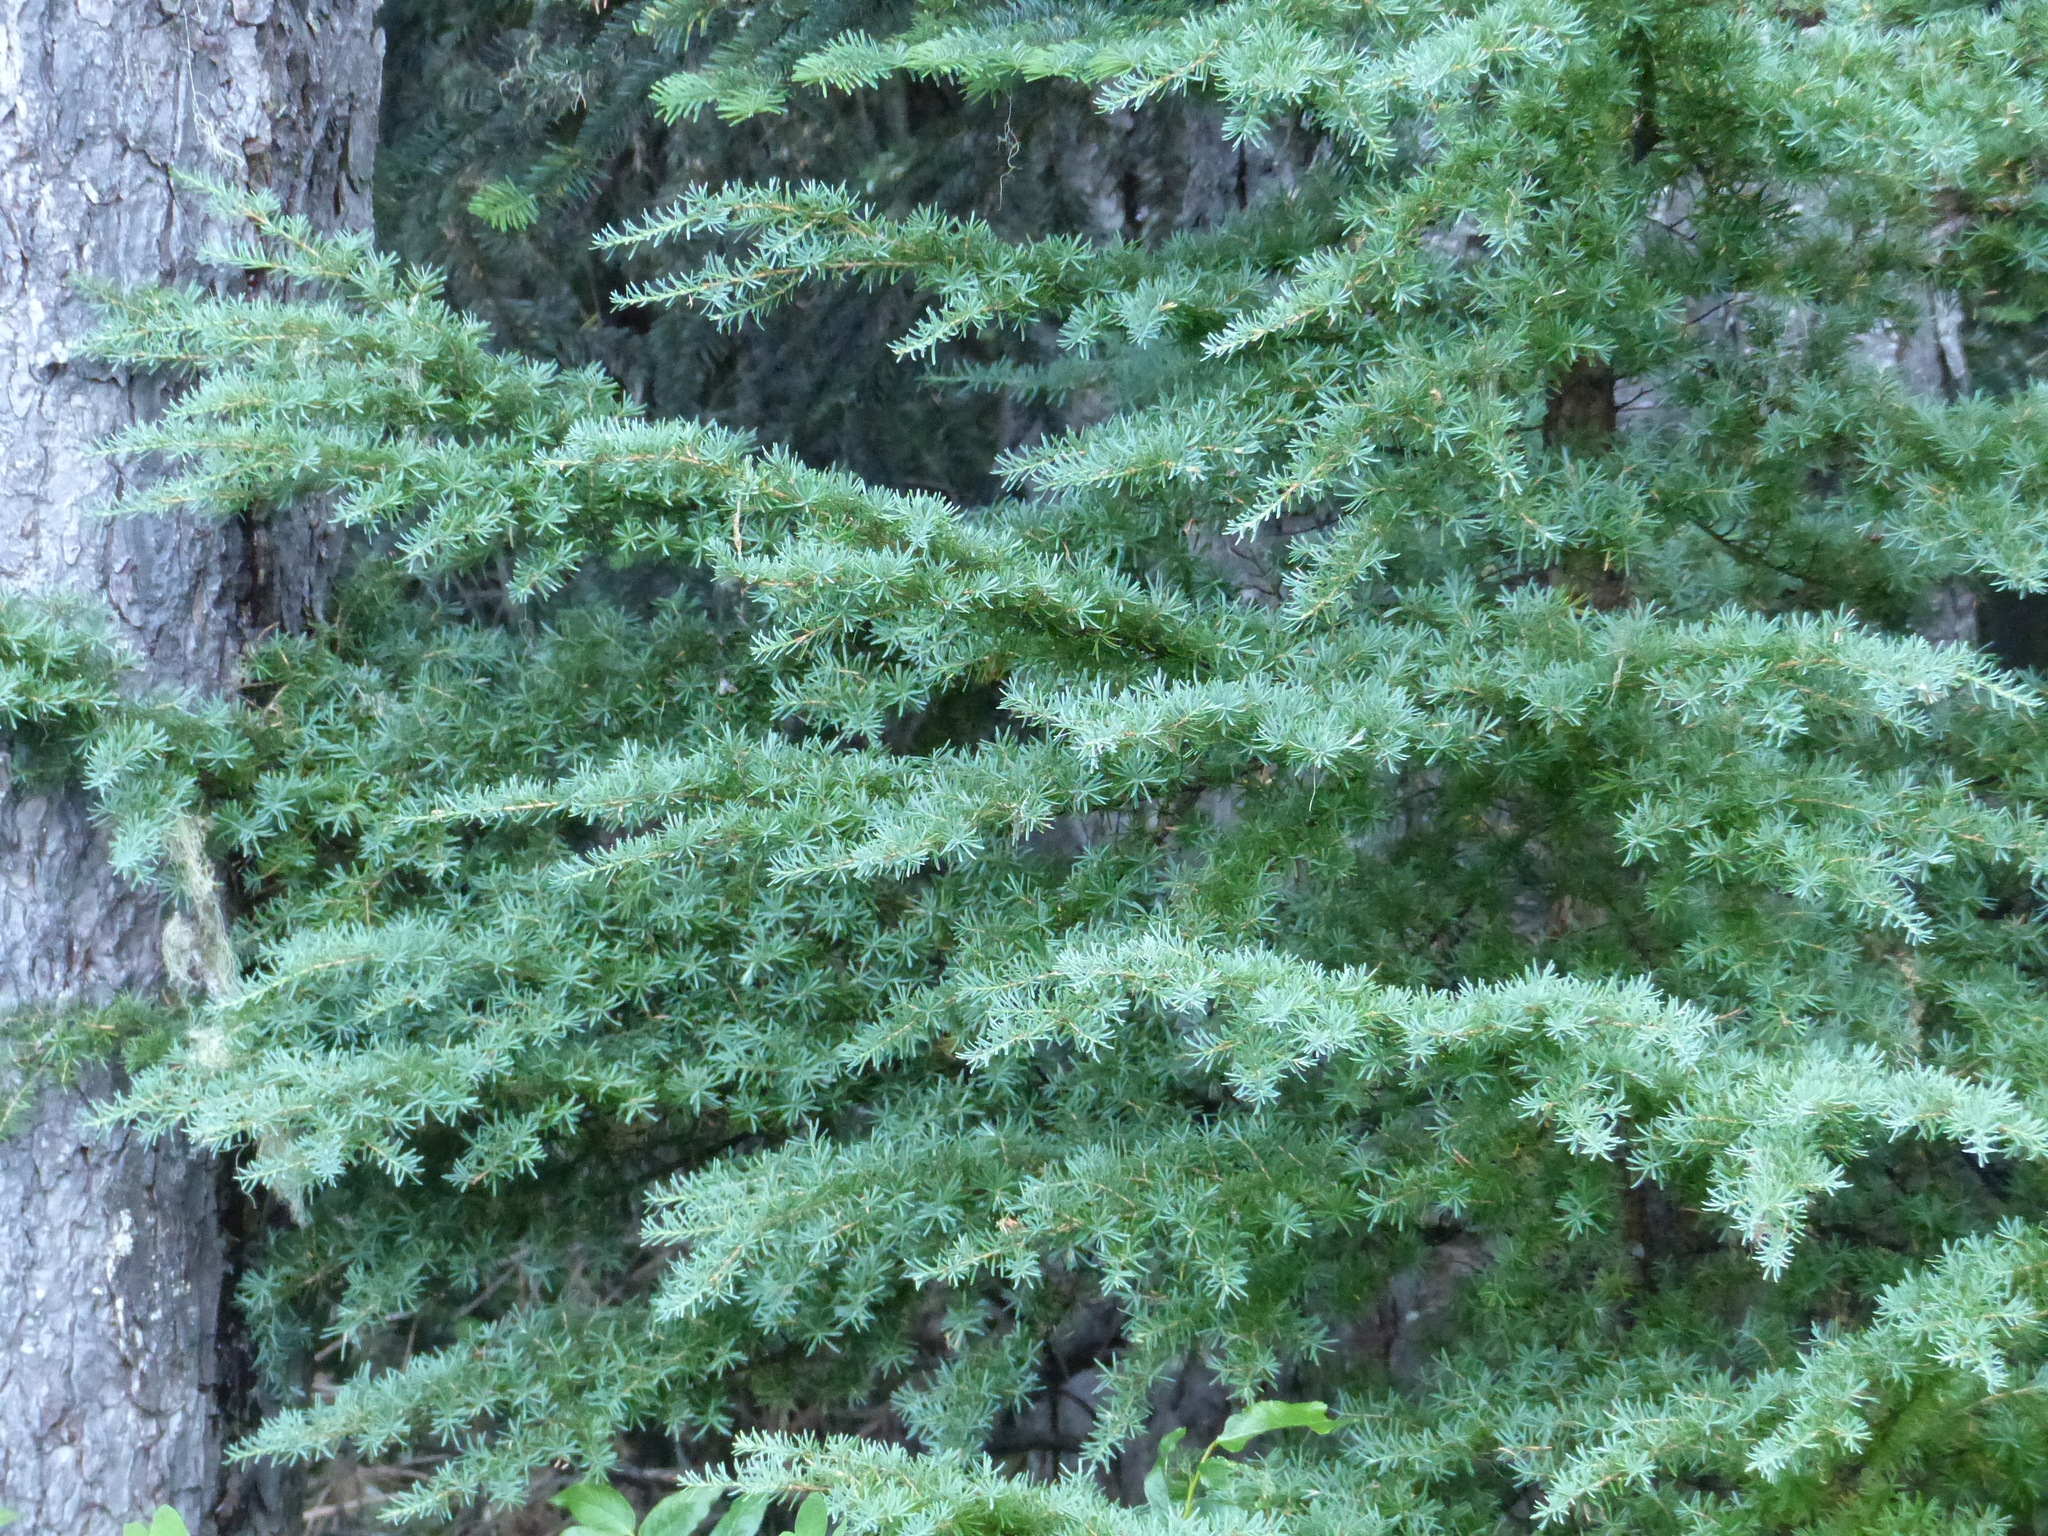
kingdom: Plantae
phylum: Tracheophyta
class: Pinopsida
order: Pinales
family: Pinaceae
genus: Tsuga
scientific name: Tsuga mertensiana
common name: Mountain hemlock
